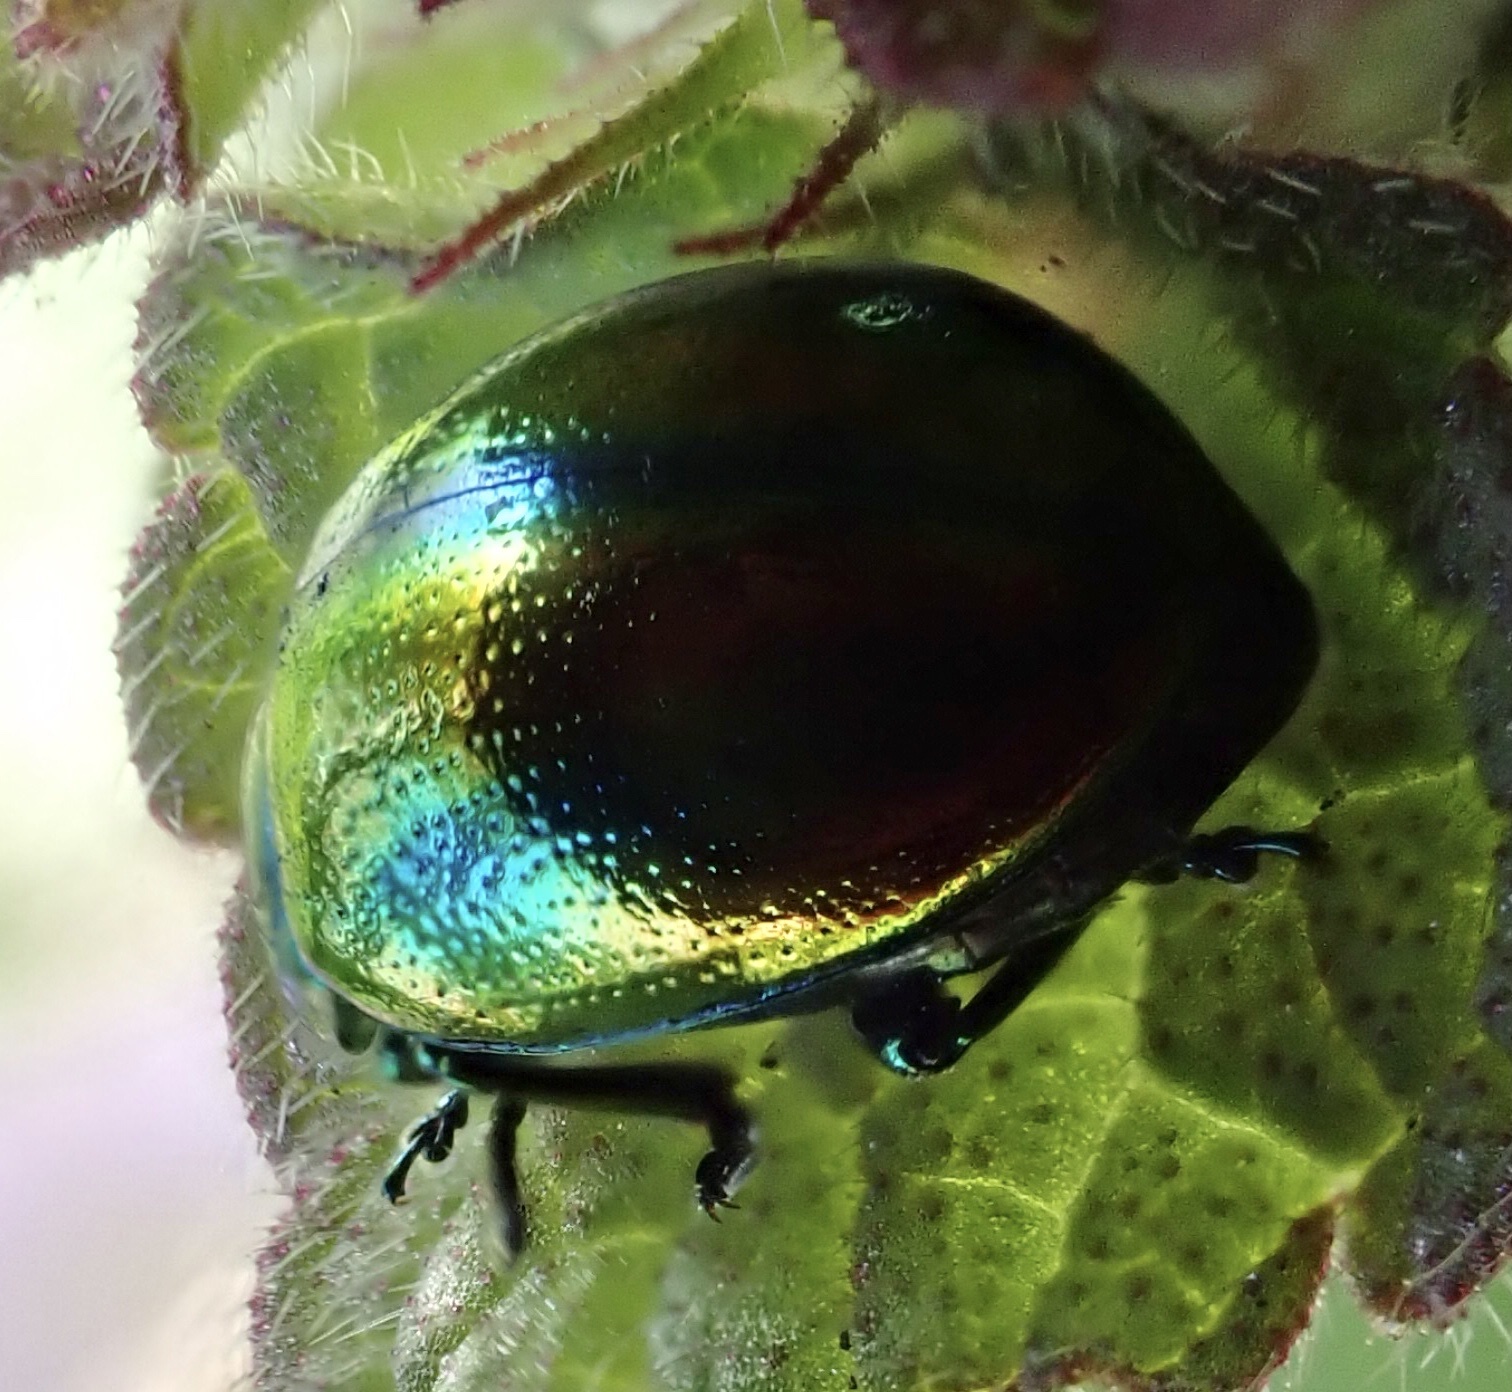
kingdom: Animalia
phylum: Arthropoda
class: Insecta
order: Coleoptera
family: Chrysomelidae
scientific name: Chrysomelidae
